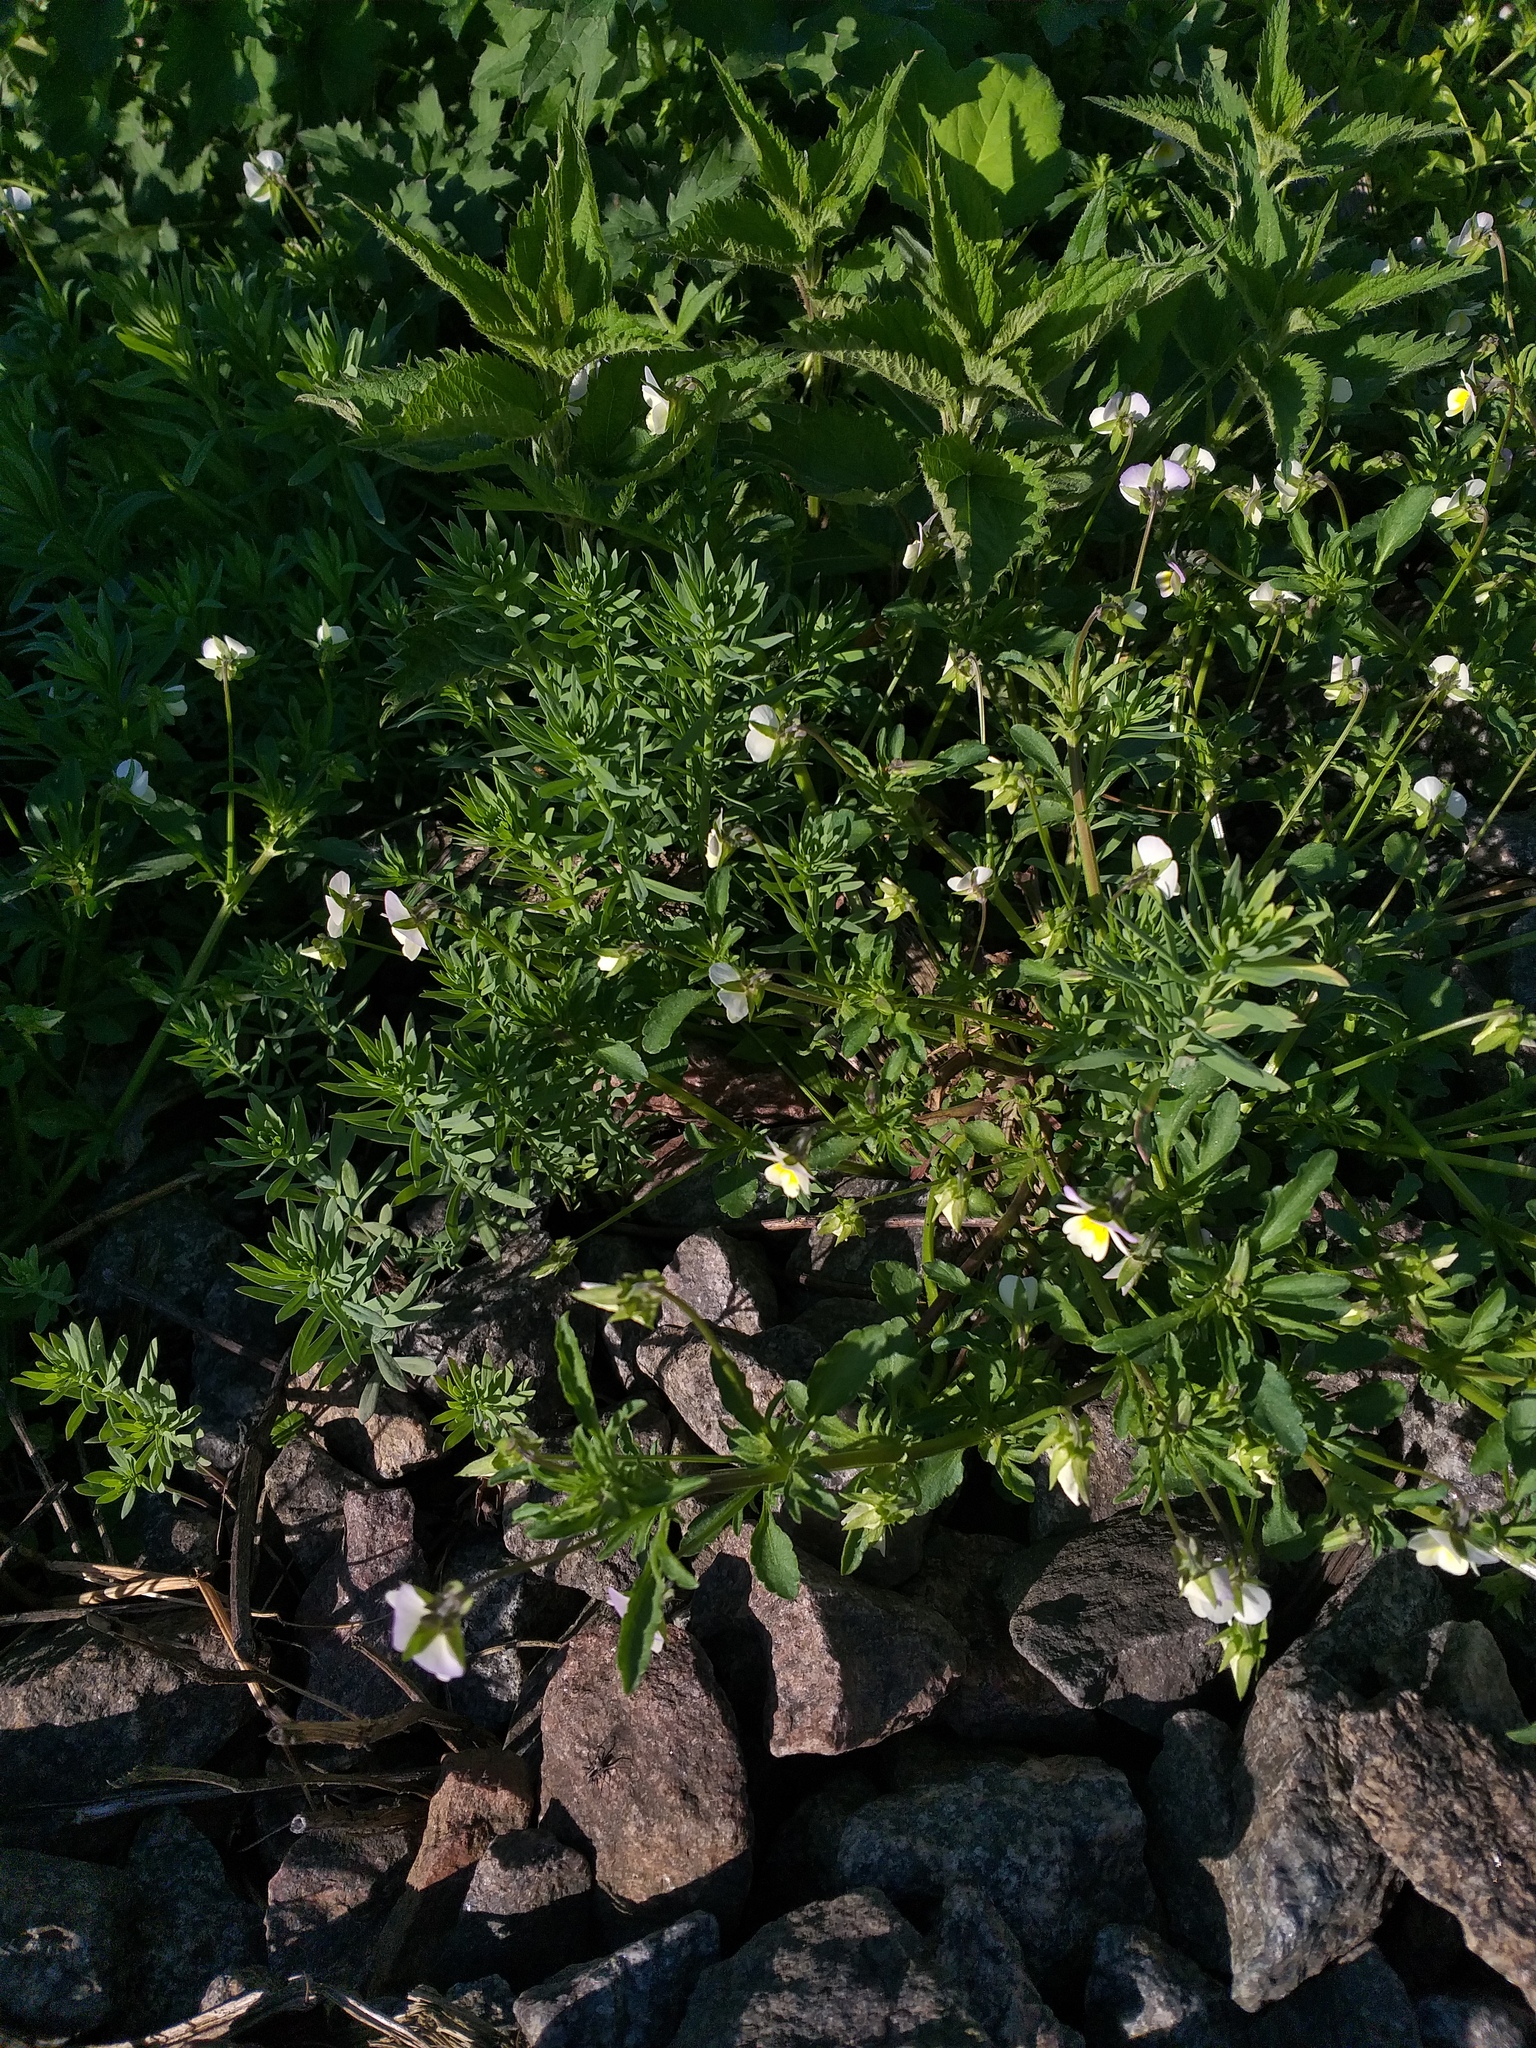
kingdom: Plantae
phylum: Tracheophyta
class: Magnoliopsida
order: Malpighiales
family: Violaceae
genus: Viola
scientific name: Viola contempta
